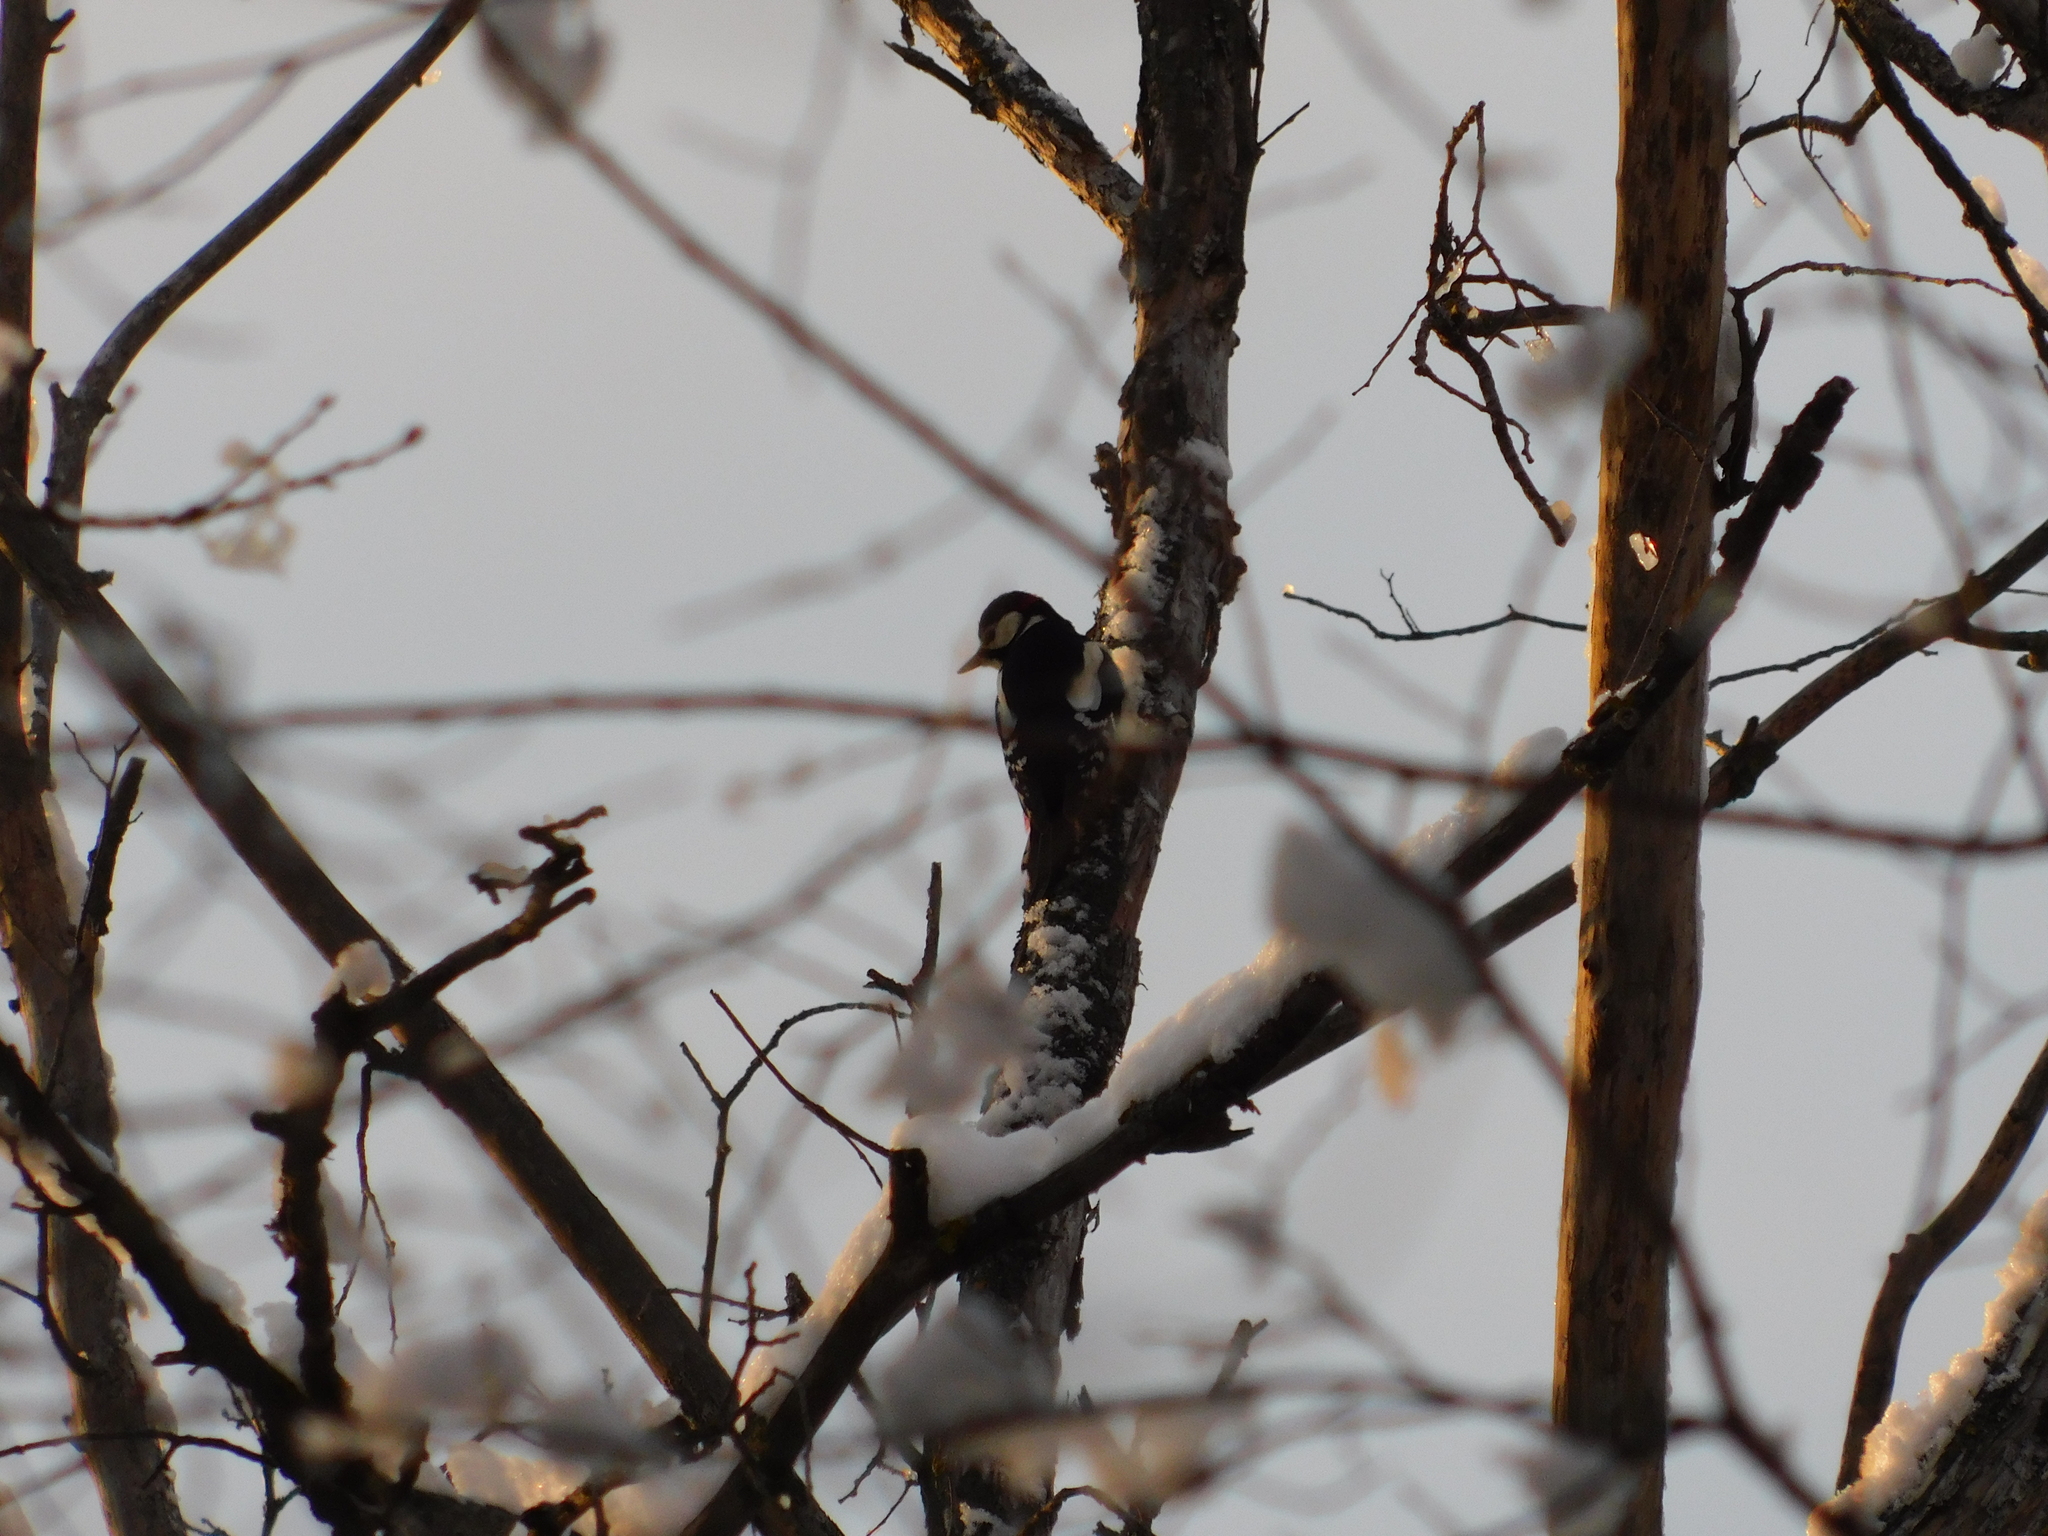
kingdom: Animalia
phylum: Chordata
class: Aves
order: Piciformes
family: Picidae
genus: Dendrocopos
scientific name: Dendrocopos major
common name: Great spotted woodpecker
